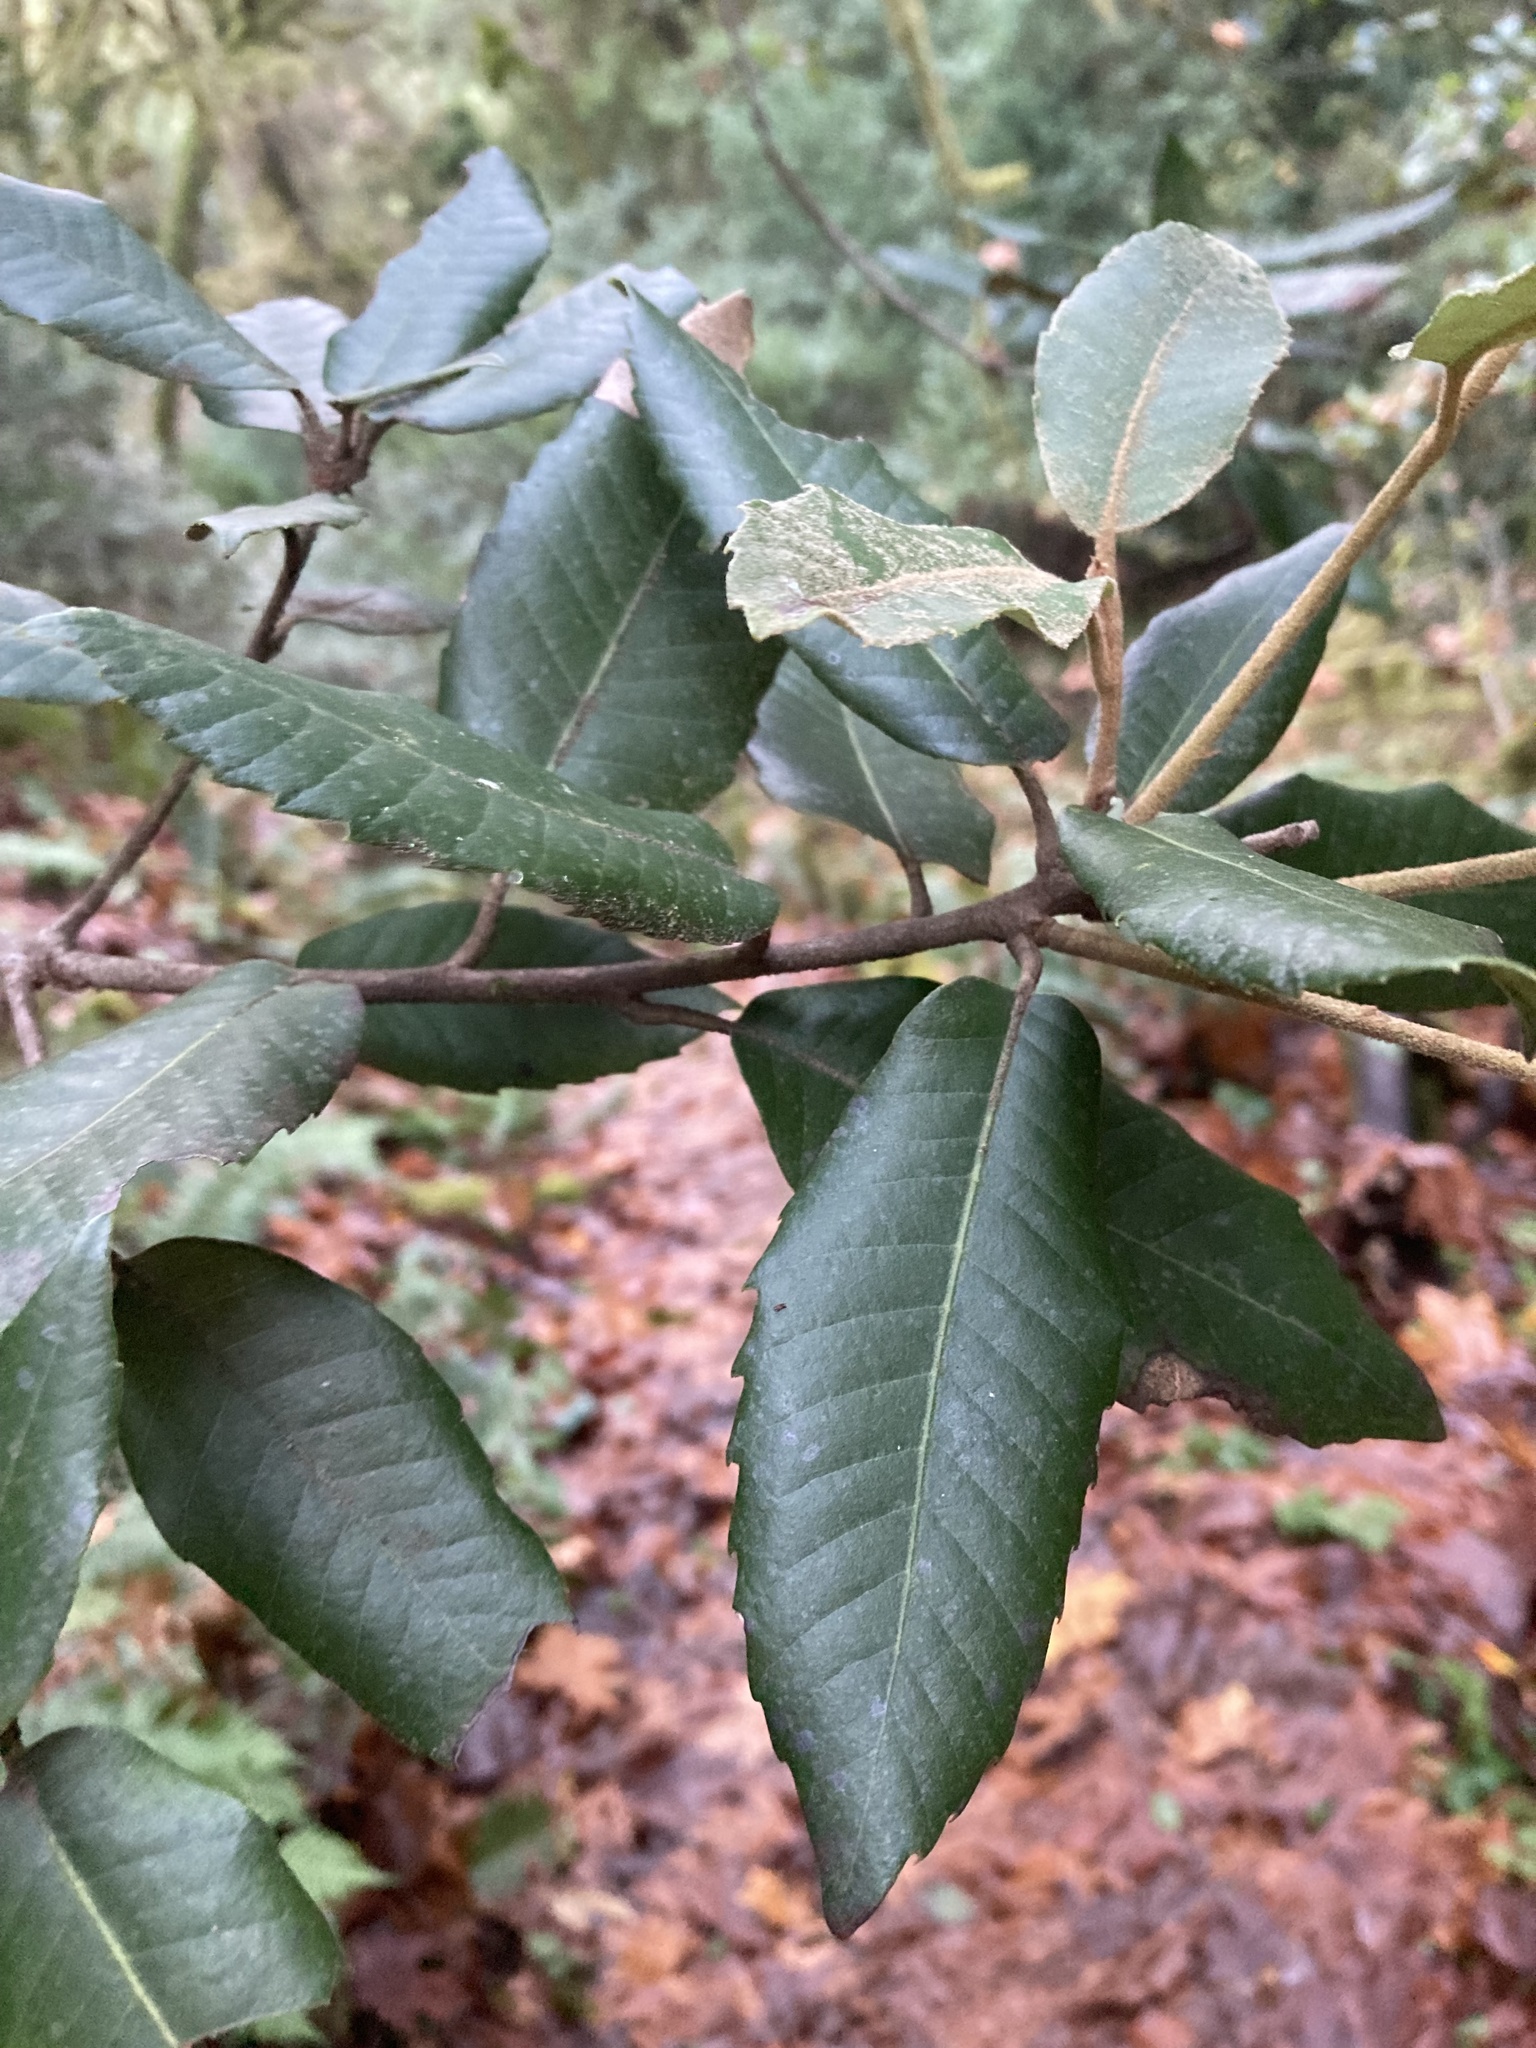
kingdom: Plantae
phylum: Tracheophyta
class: Magnoliopsida
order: Fagales
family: Fagaceae
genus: Notholithocarpus
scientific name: Notholithocarpus densiflorus
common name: Tan bark oak
